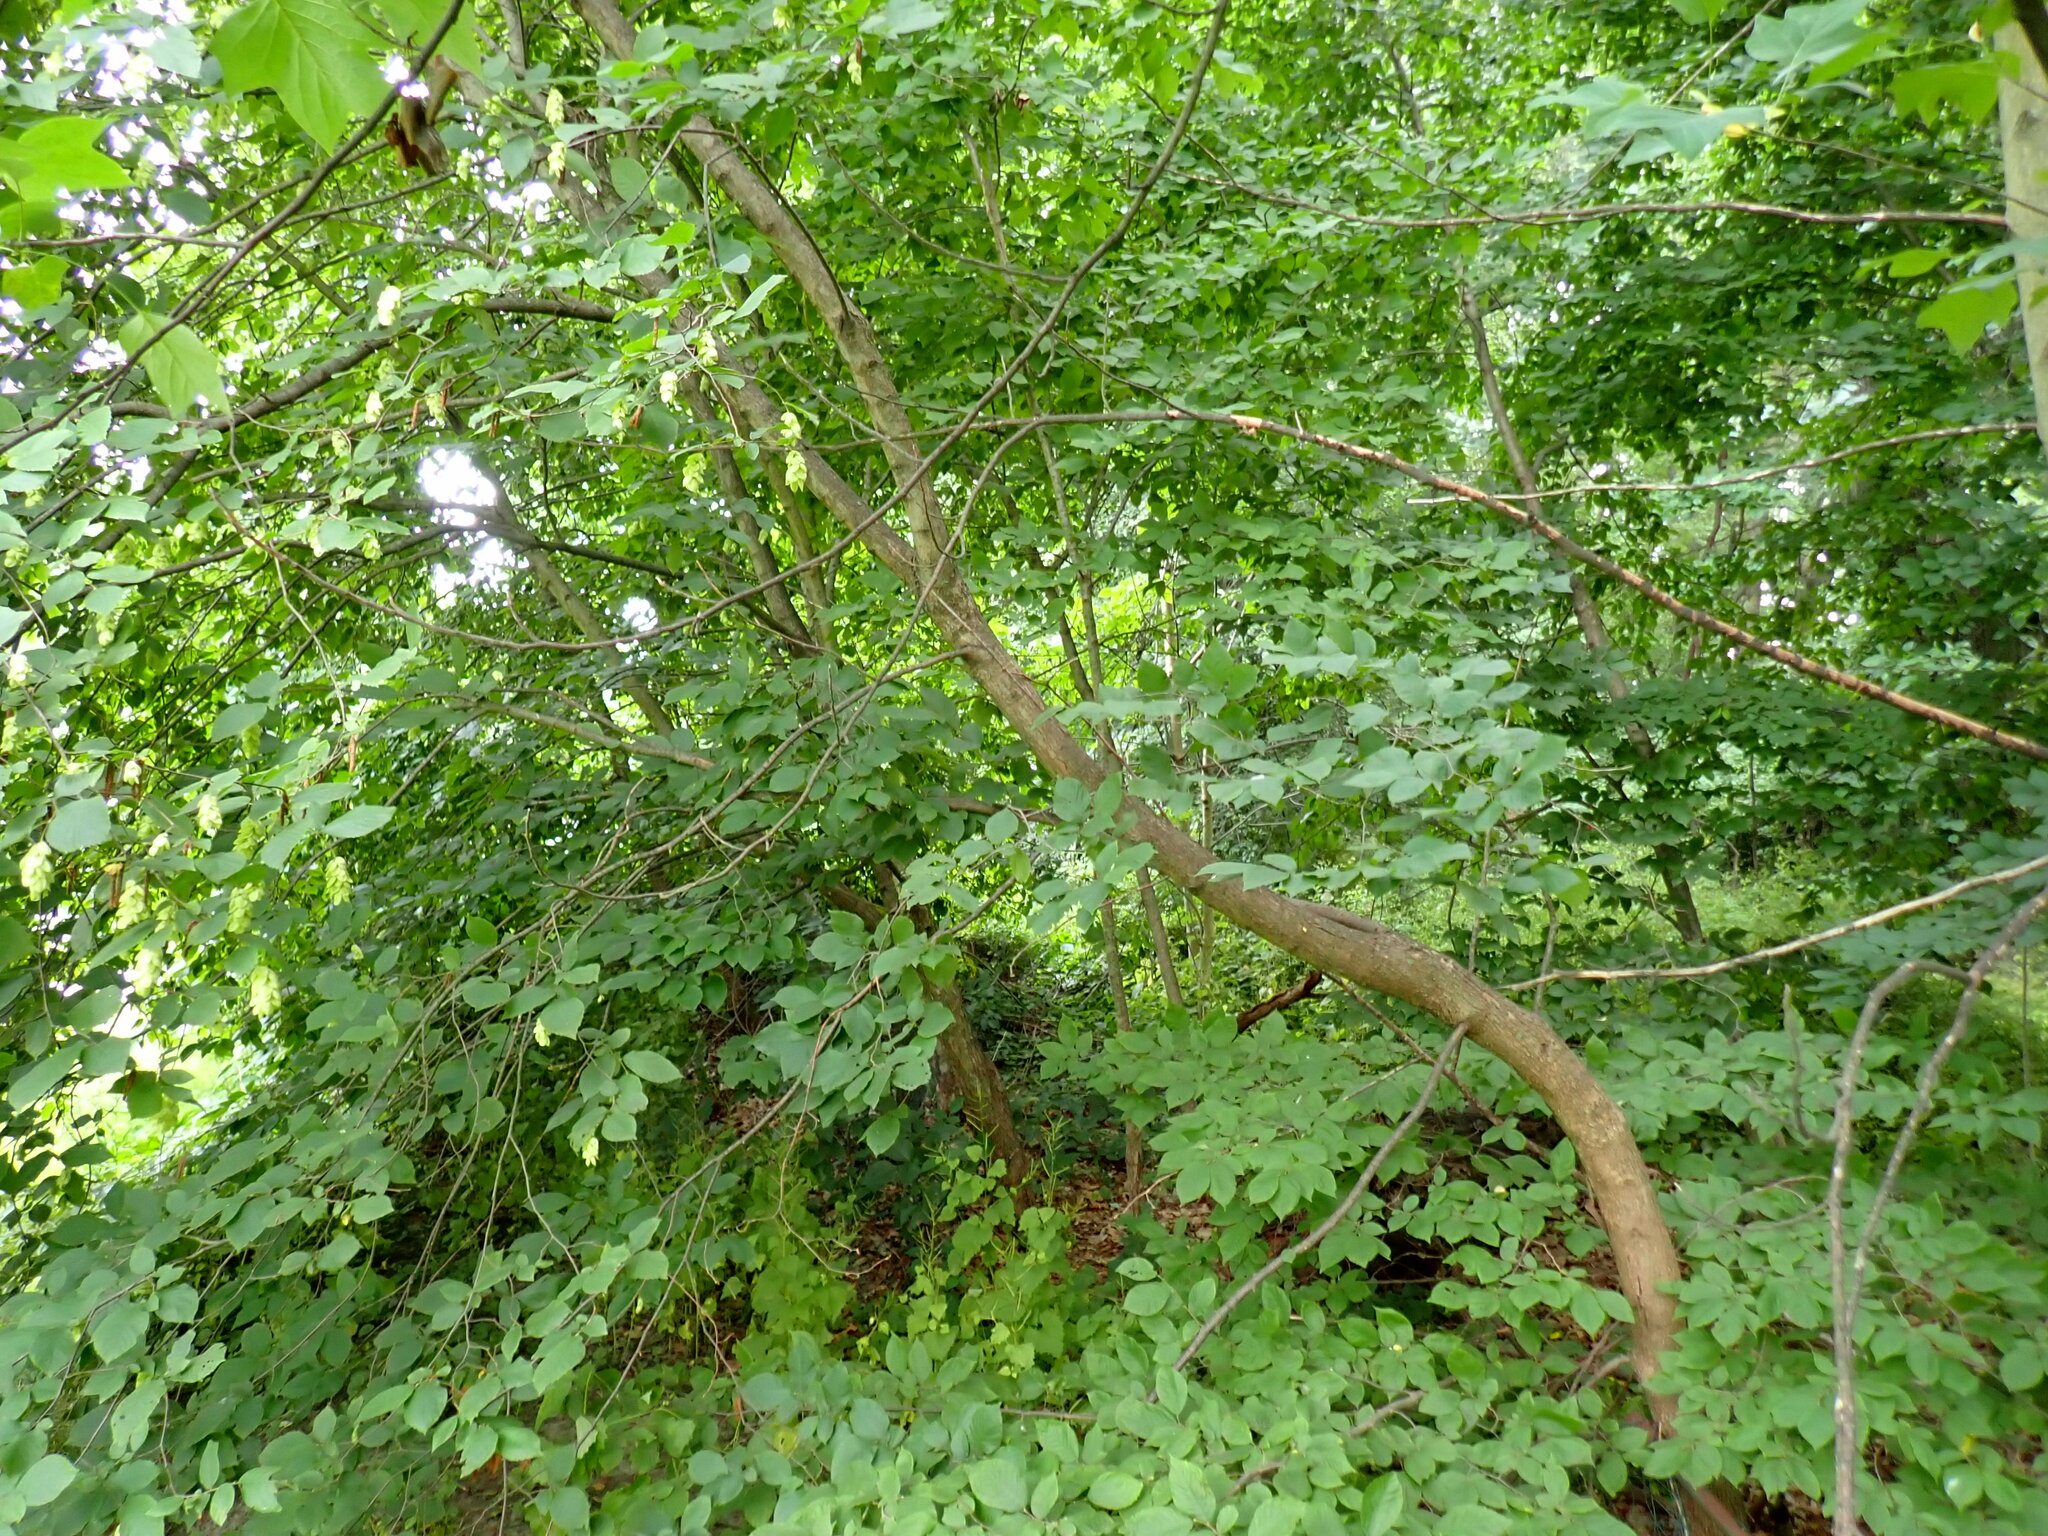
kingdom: Plantae
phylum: Tracheophyta
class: Magnoliopsida
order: Fagales
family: Betulaceae
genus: Ostrya
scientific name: Ostrya virginiana
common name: Ironwood
